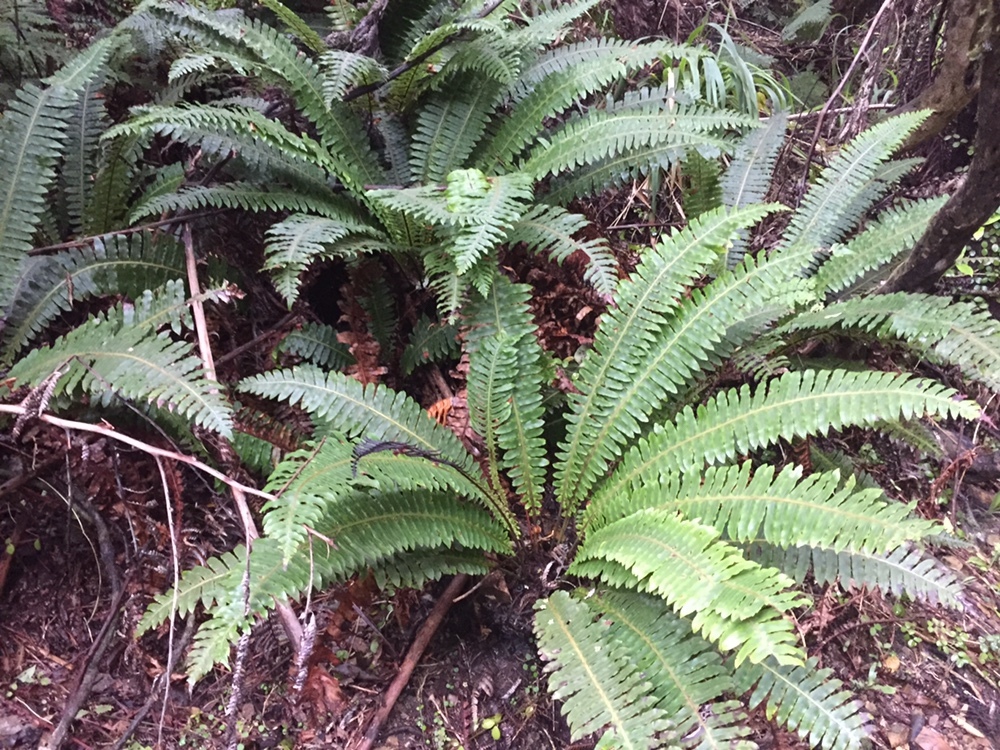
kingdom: Plantae
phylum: Tracheophyta
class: Polypodiopsida
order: Polypodiales
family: Blechnaceae
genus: Lomaria
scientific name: Lomaria discolor
